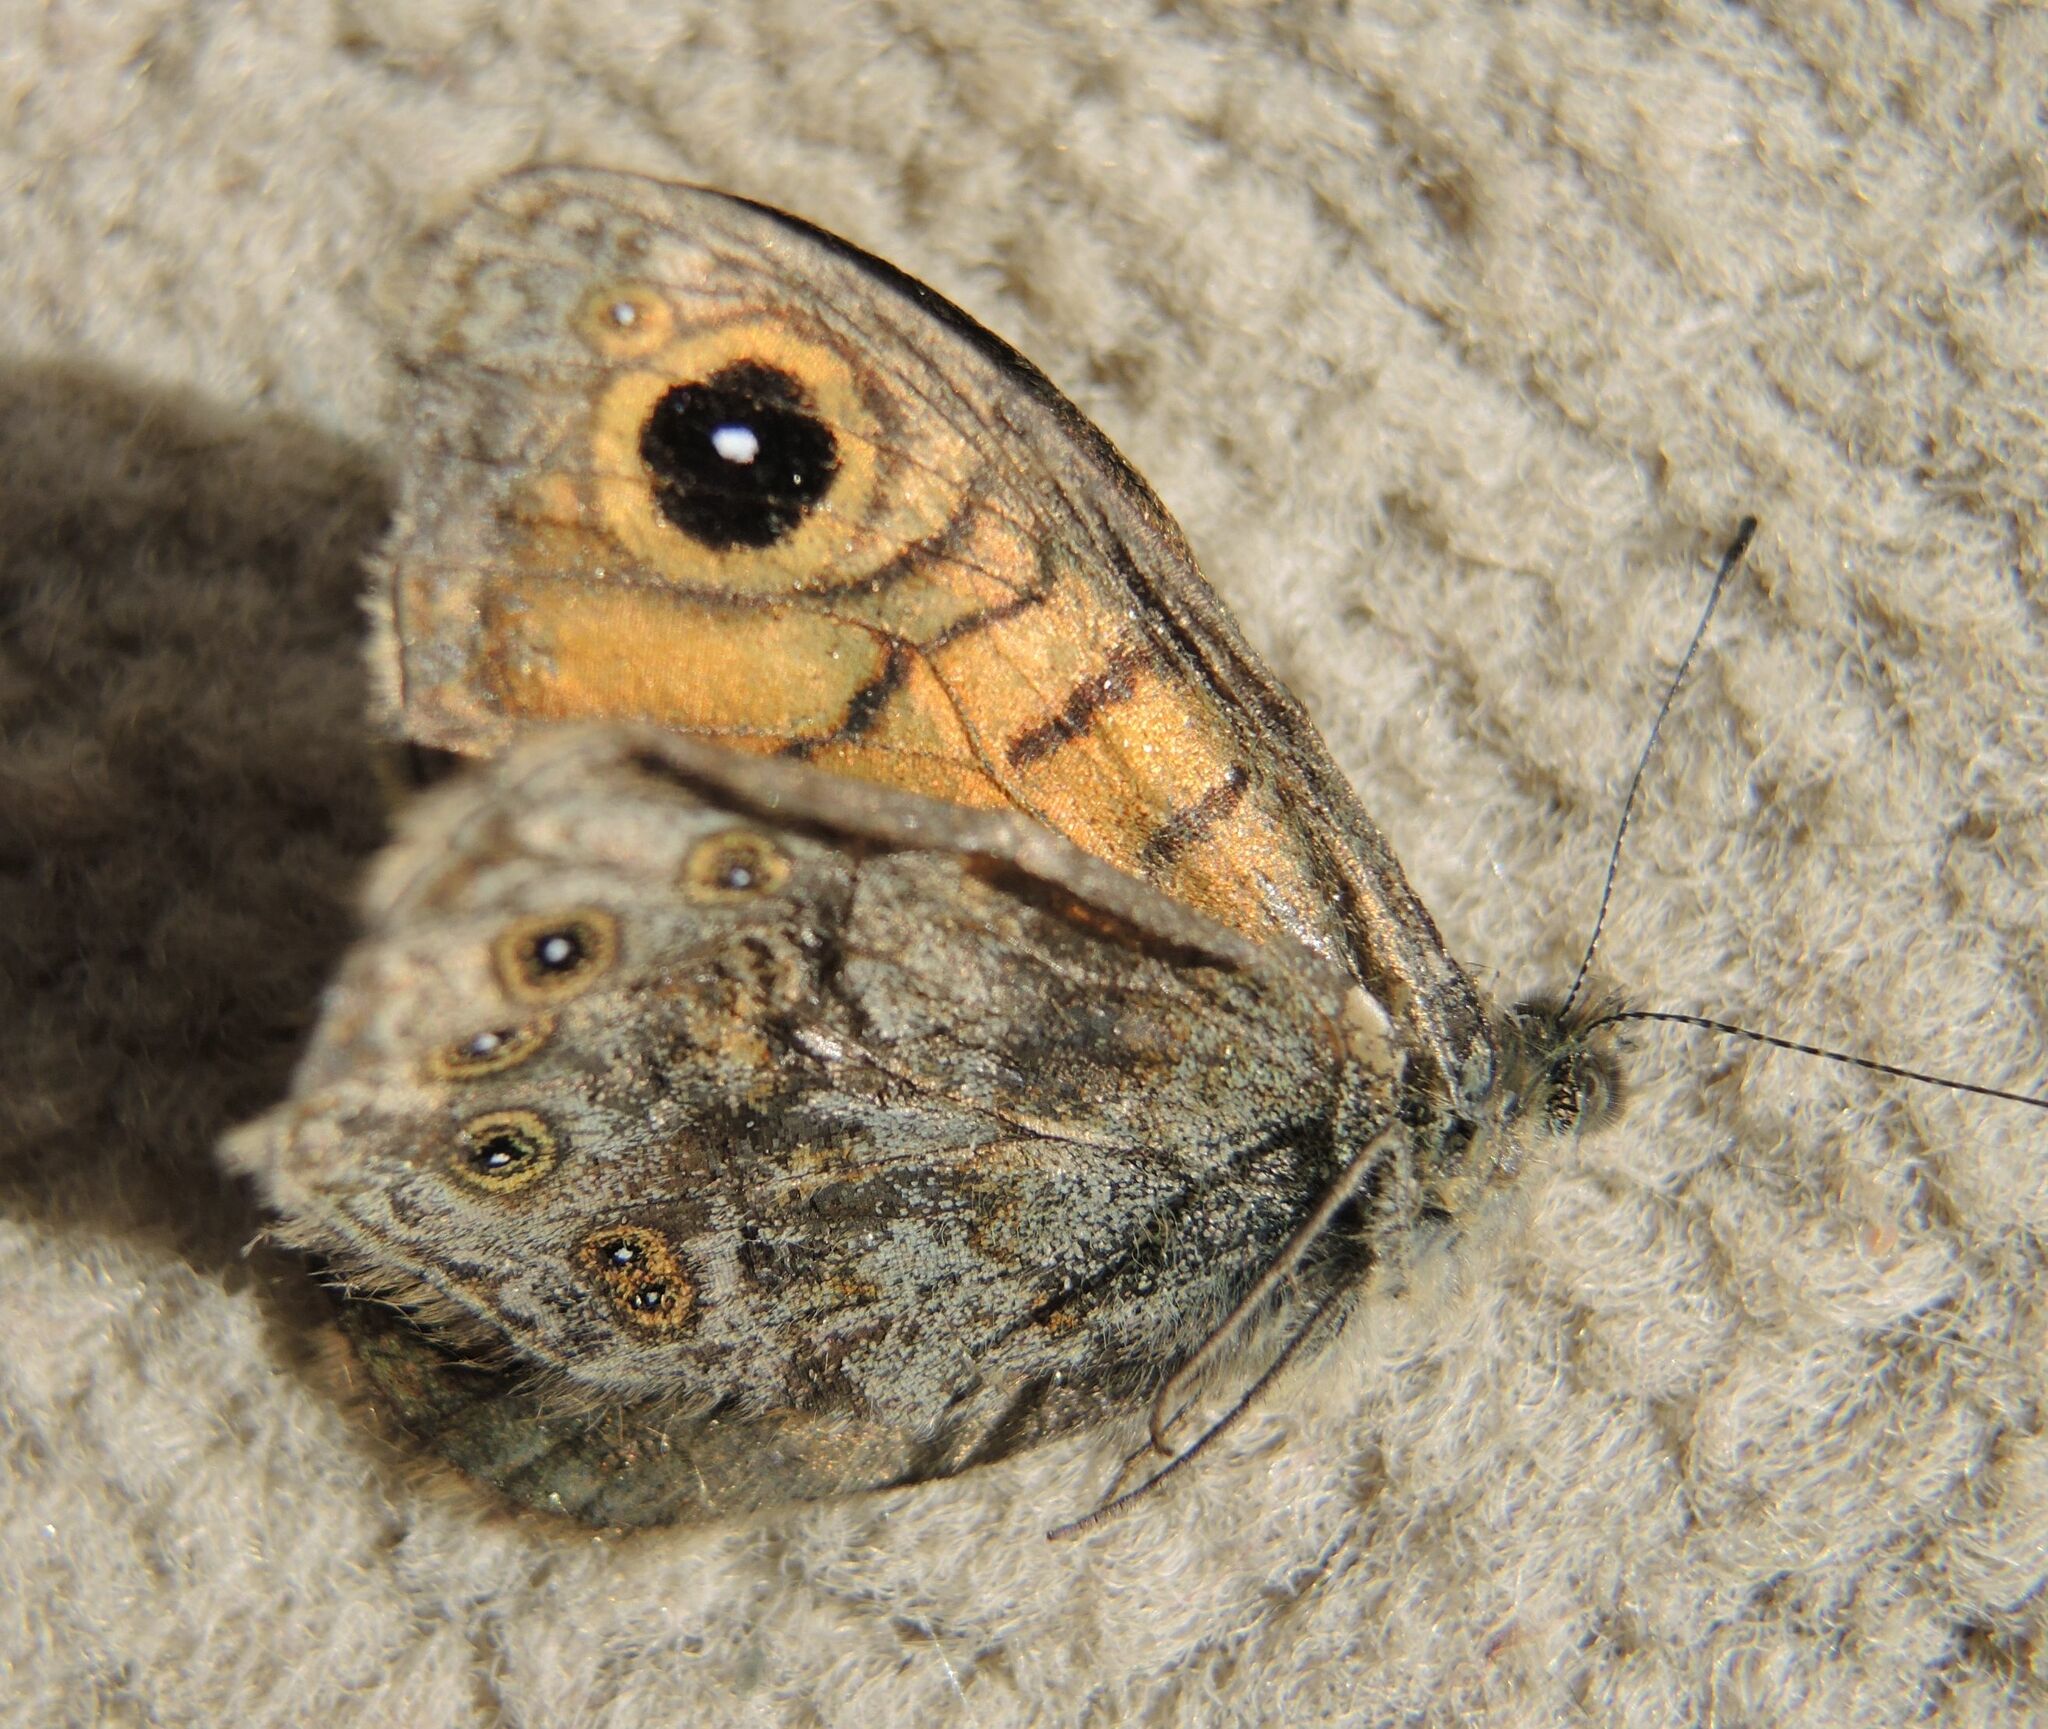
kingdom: Animalia
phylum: Arthropoda
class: Insecta
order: Lepidoptera
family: Nymphalidae
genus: Pararge
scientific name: Pararge Lasiommata megera
